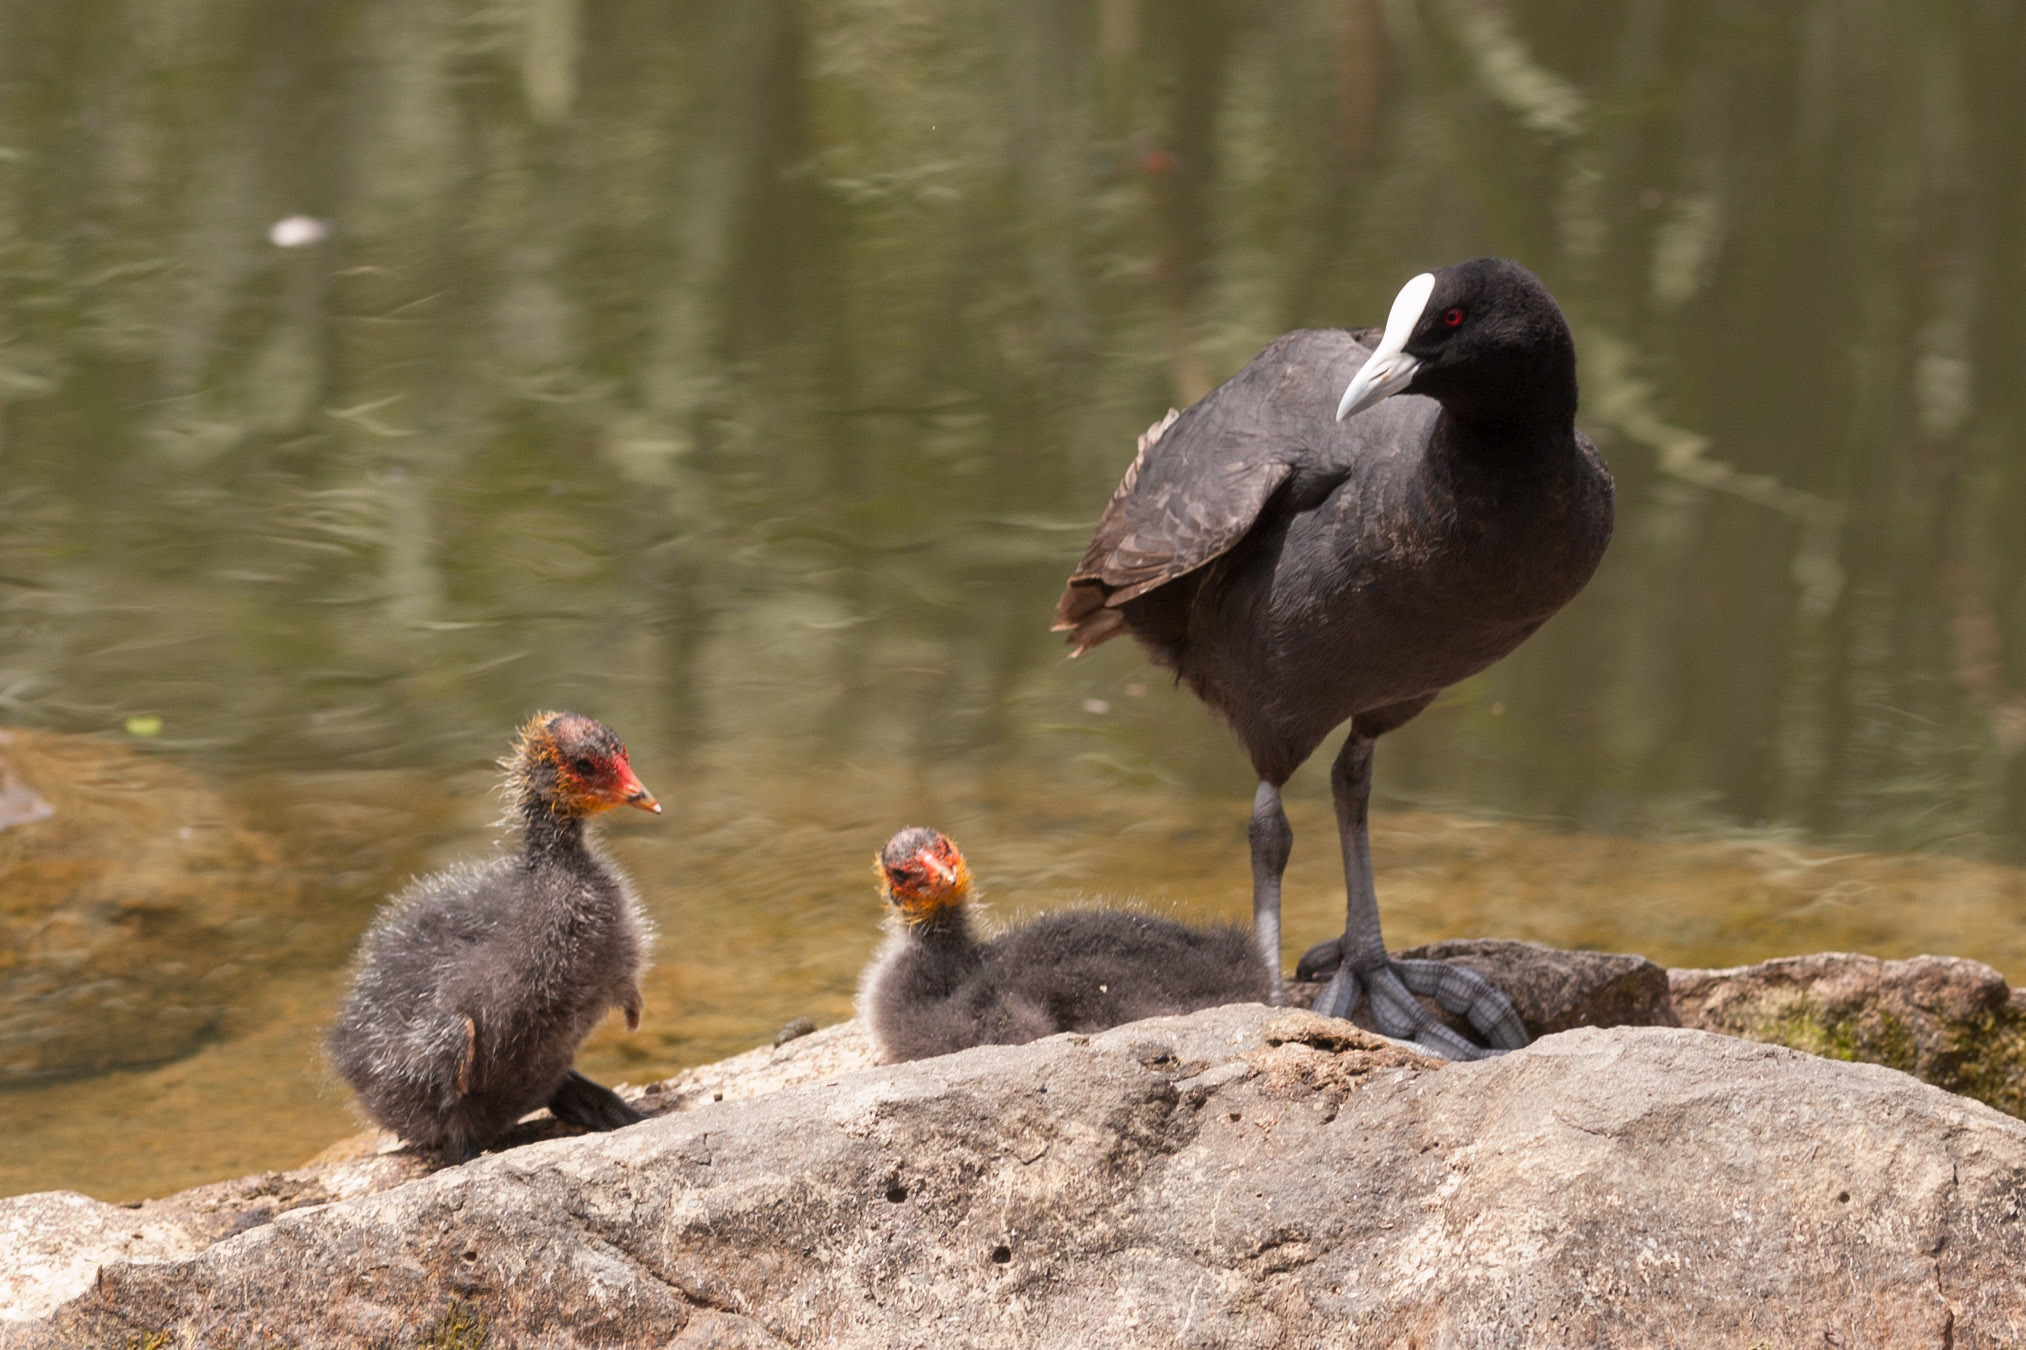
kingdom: Animalia
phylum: Chordata
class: Aves
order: Gruiformes
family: Rallidae
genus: Fulica
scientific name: Fulica atra
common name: Eurasian coot
